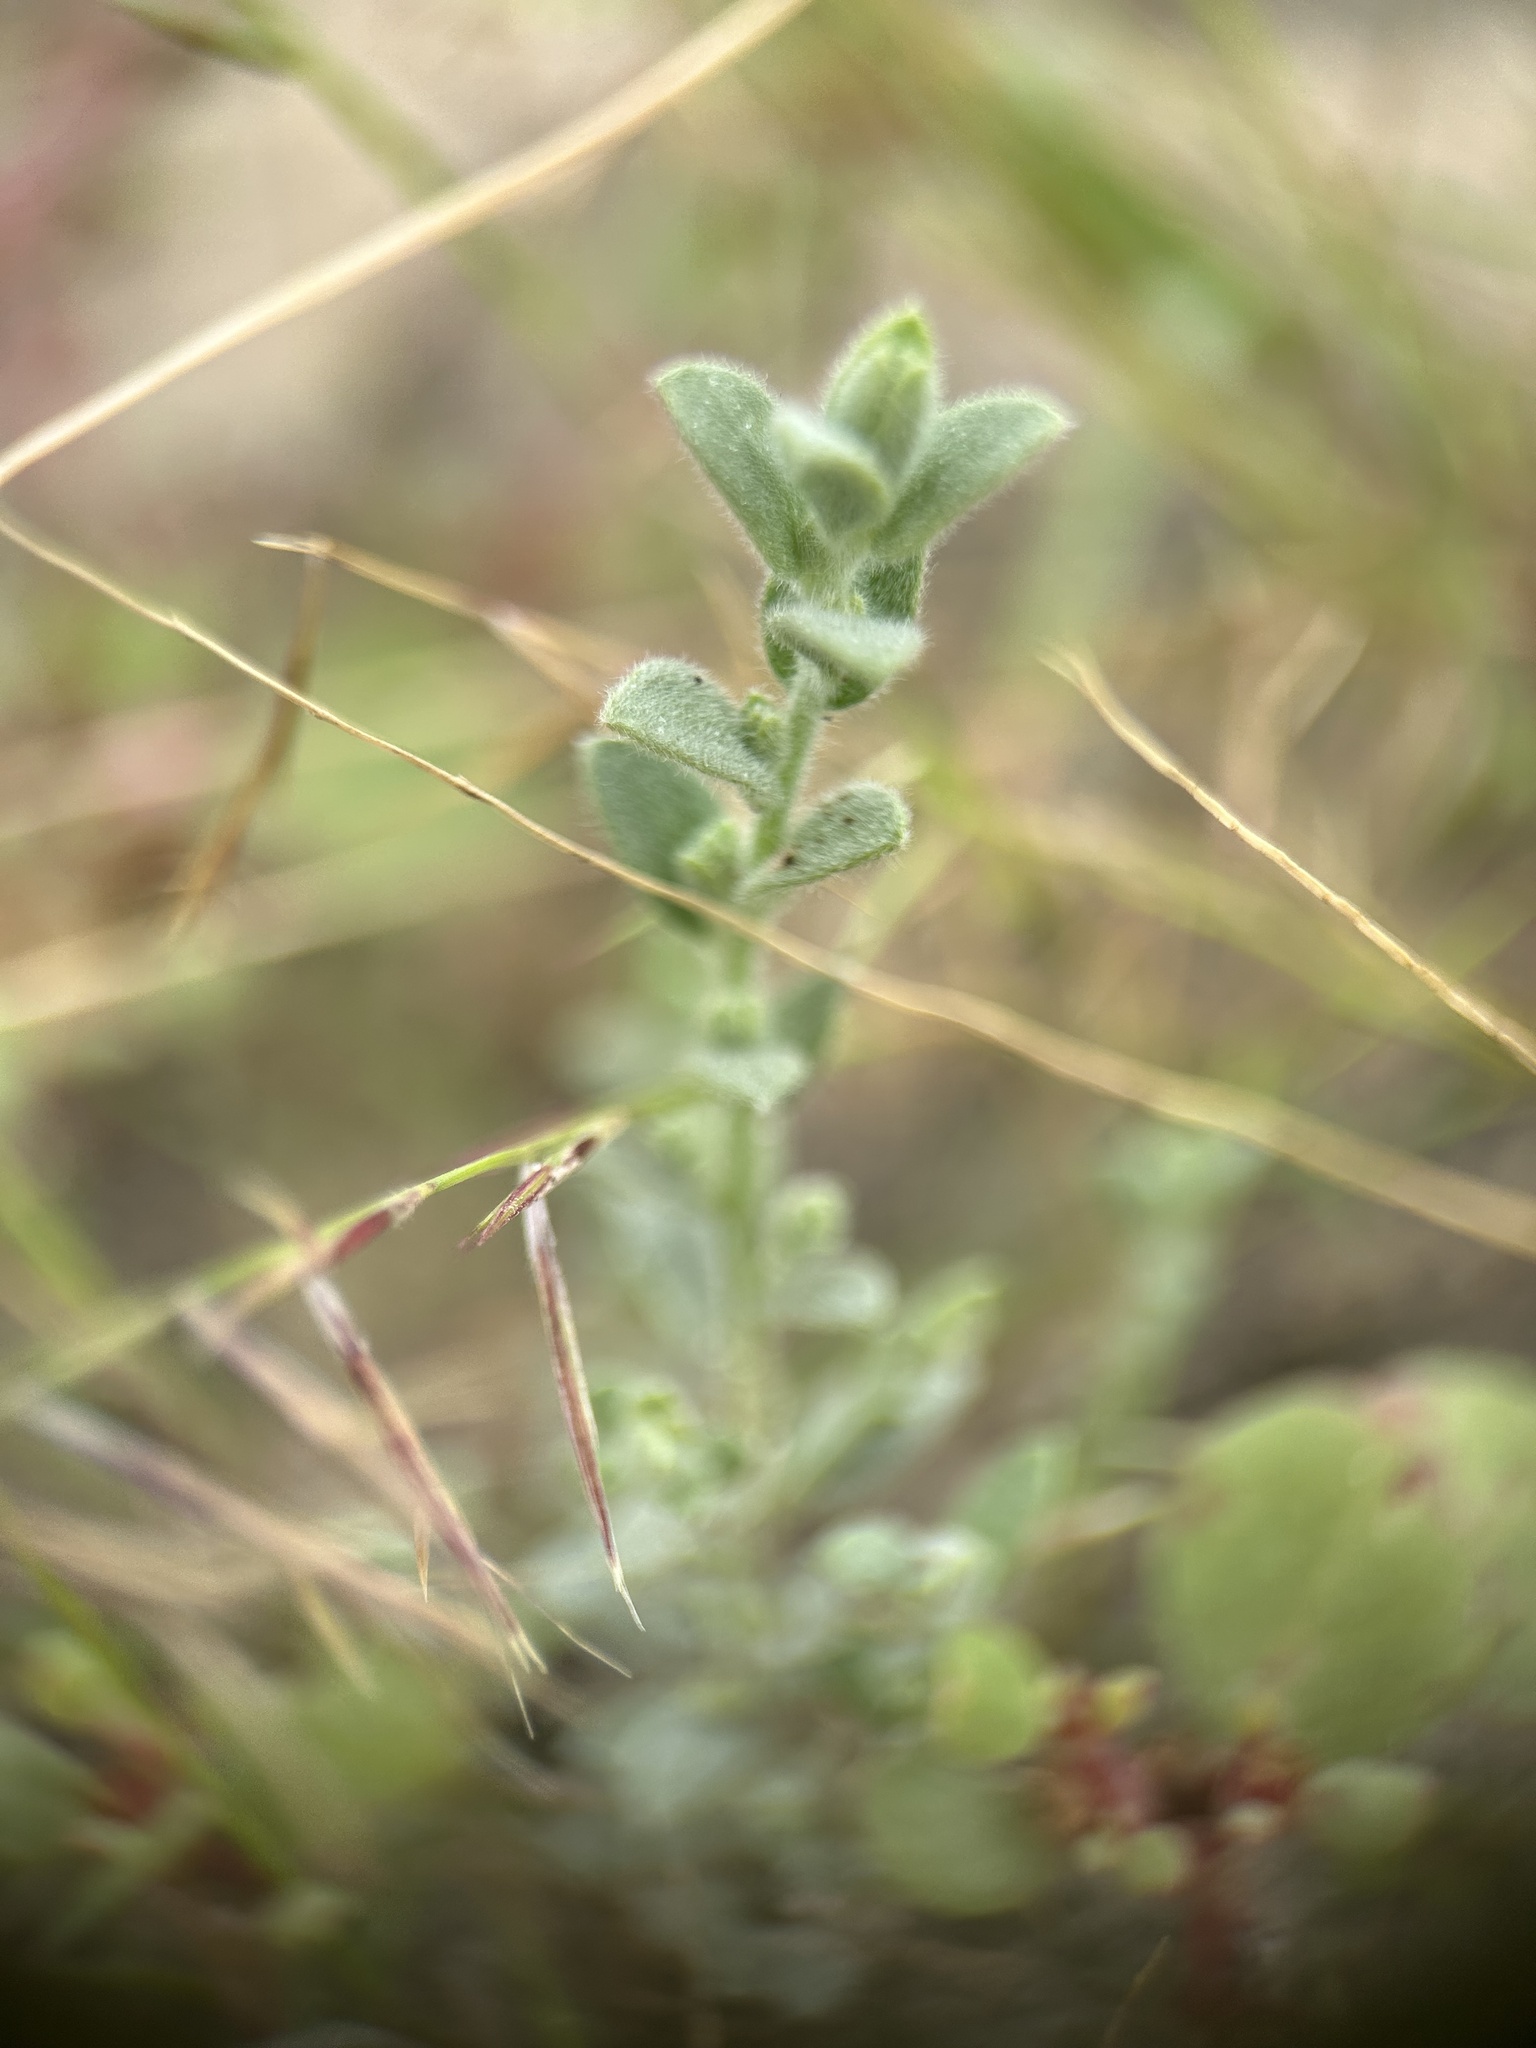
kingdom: Plantae
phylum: Tracheophyta
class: Magnoliopsida
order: Solanales
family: Convolvulaceae
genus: Cressa
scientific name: Cressa truxillensis
